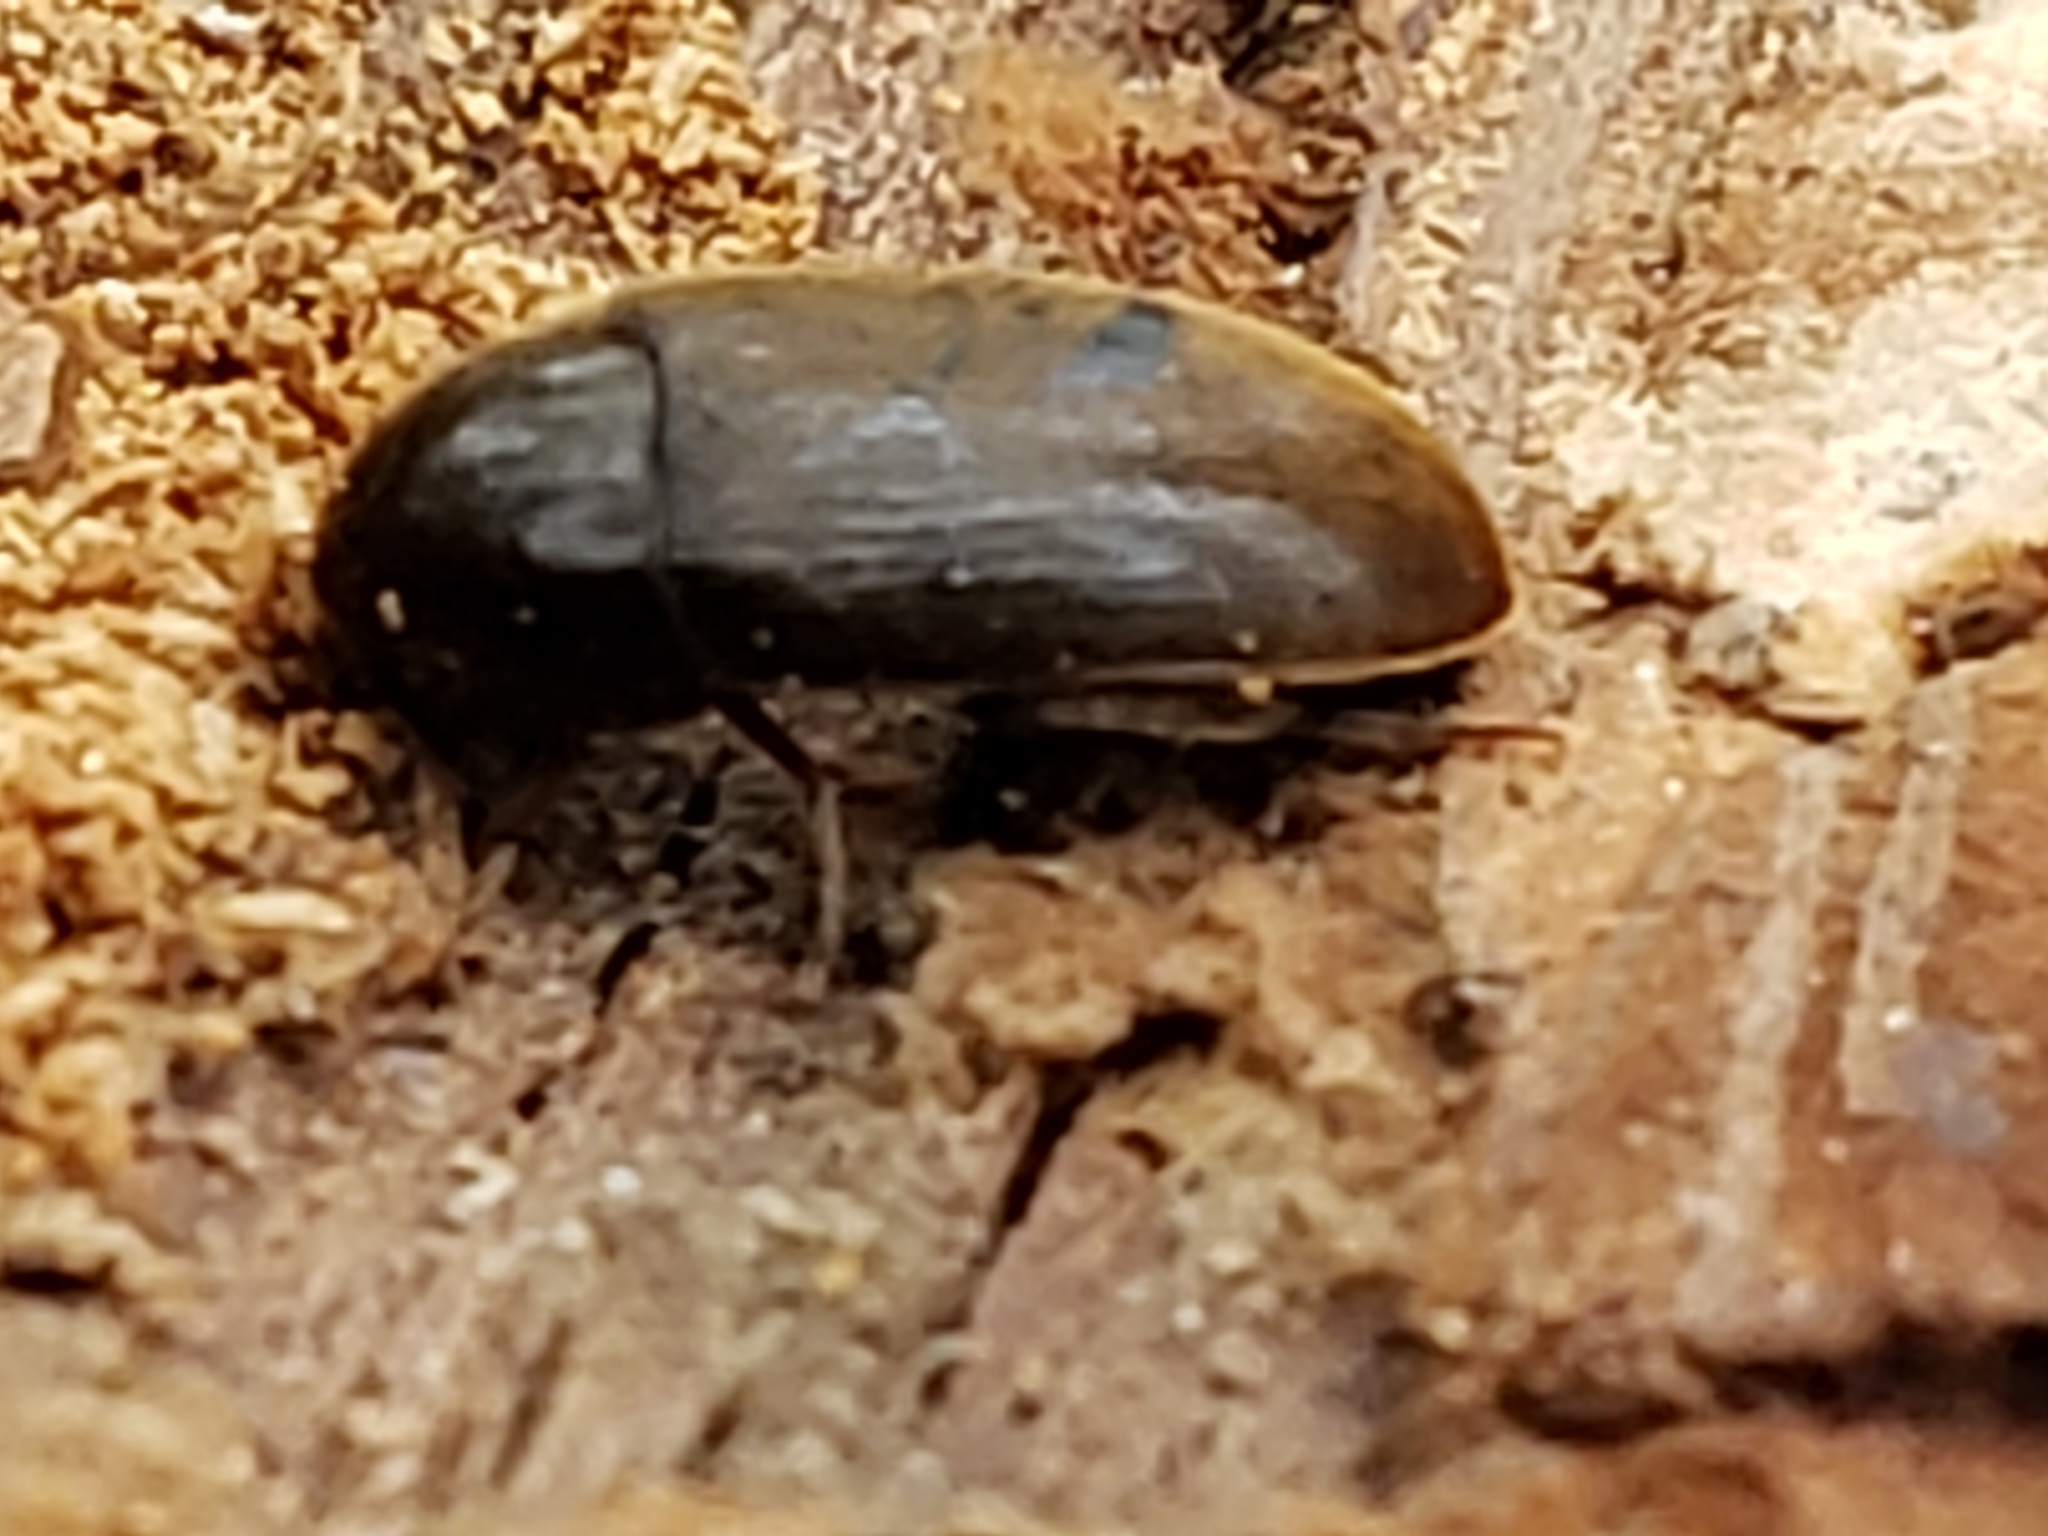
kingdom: Animalia
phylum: Arthropoda
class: Insecta
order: Coleoptera
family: Tetratomidae
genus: Eustrophus
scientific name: Eustrophus tomentosus
